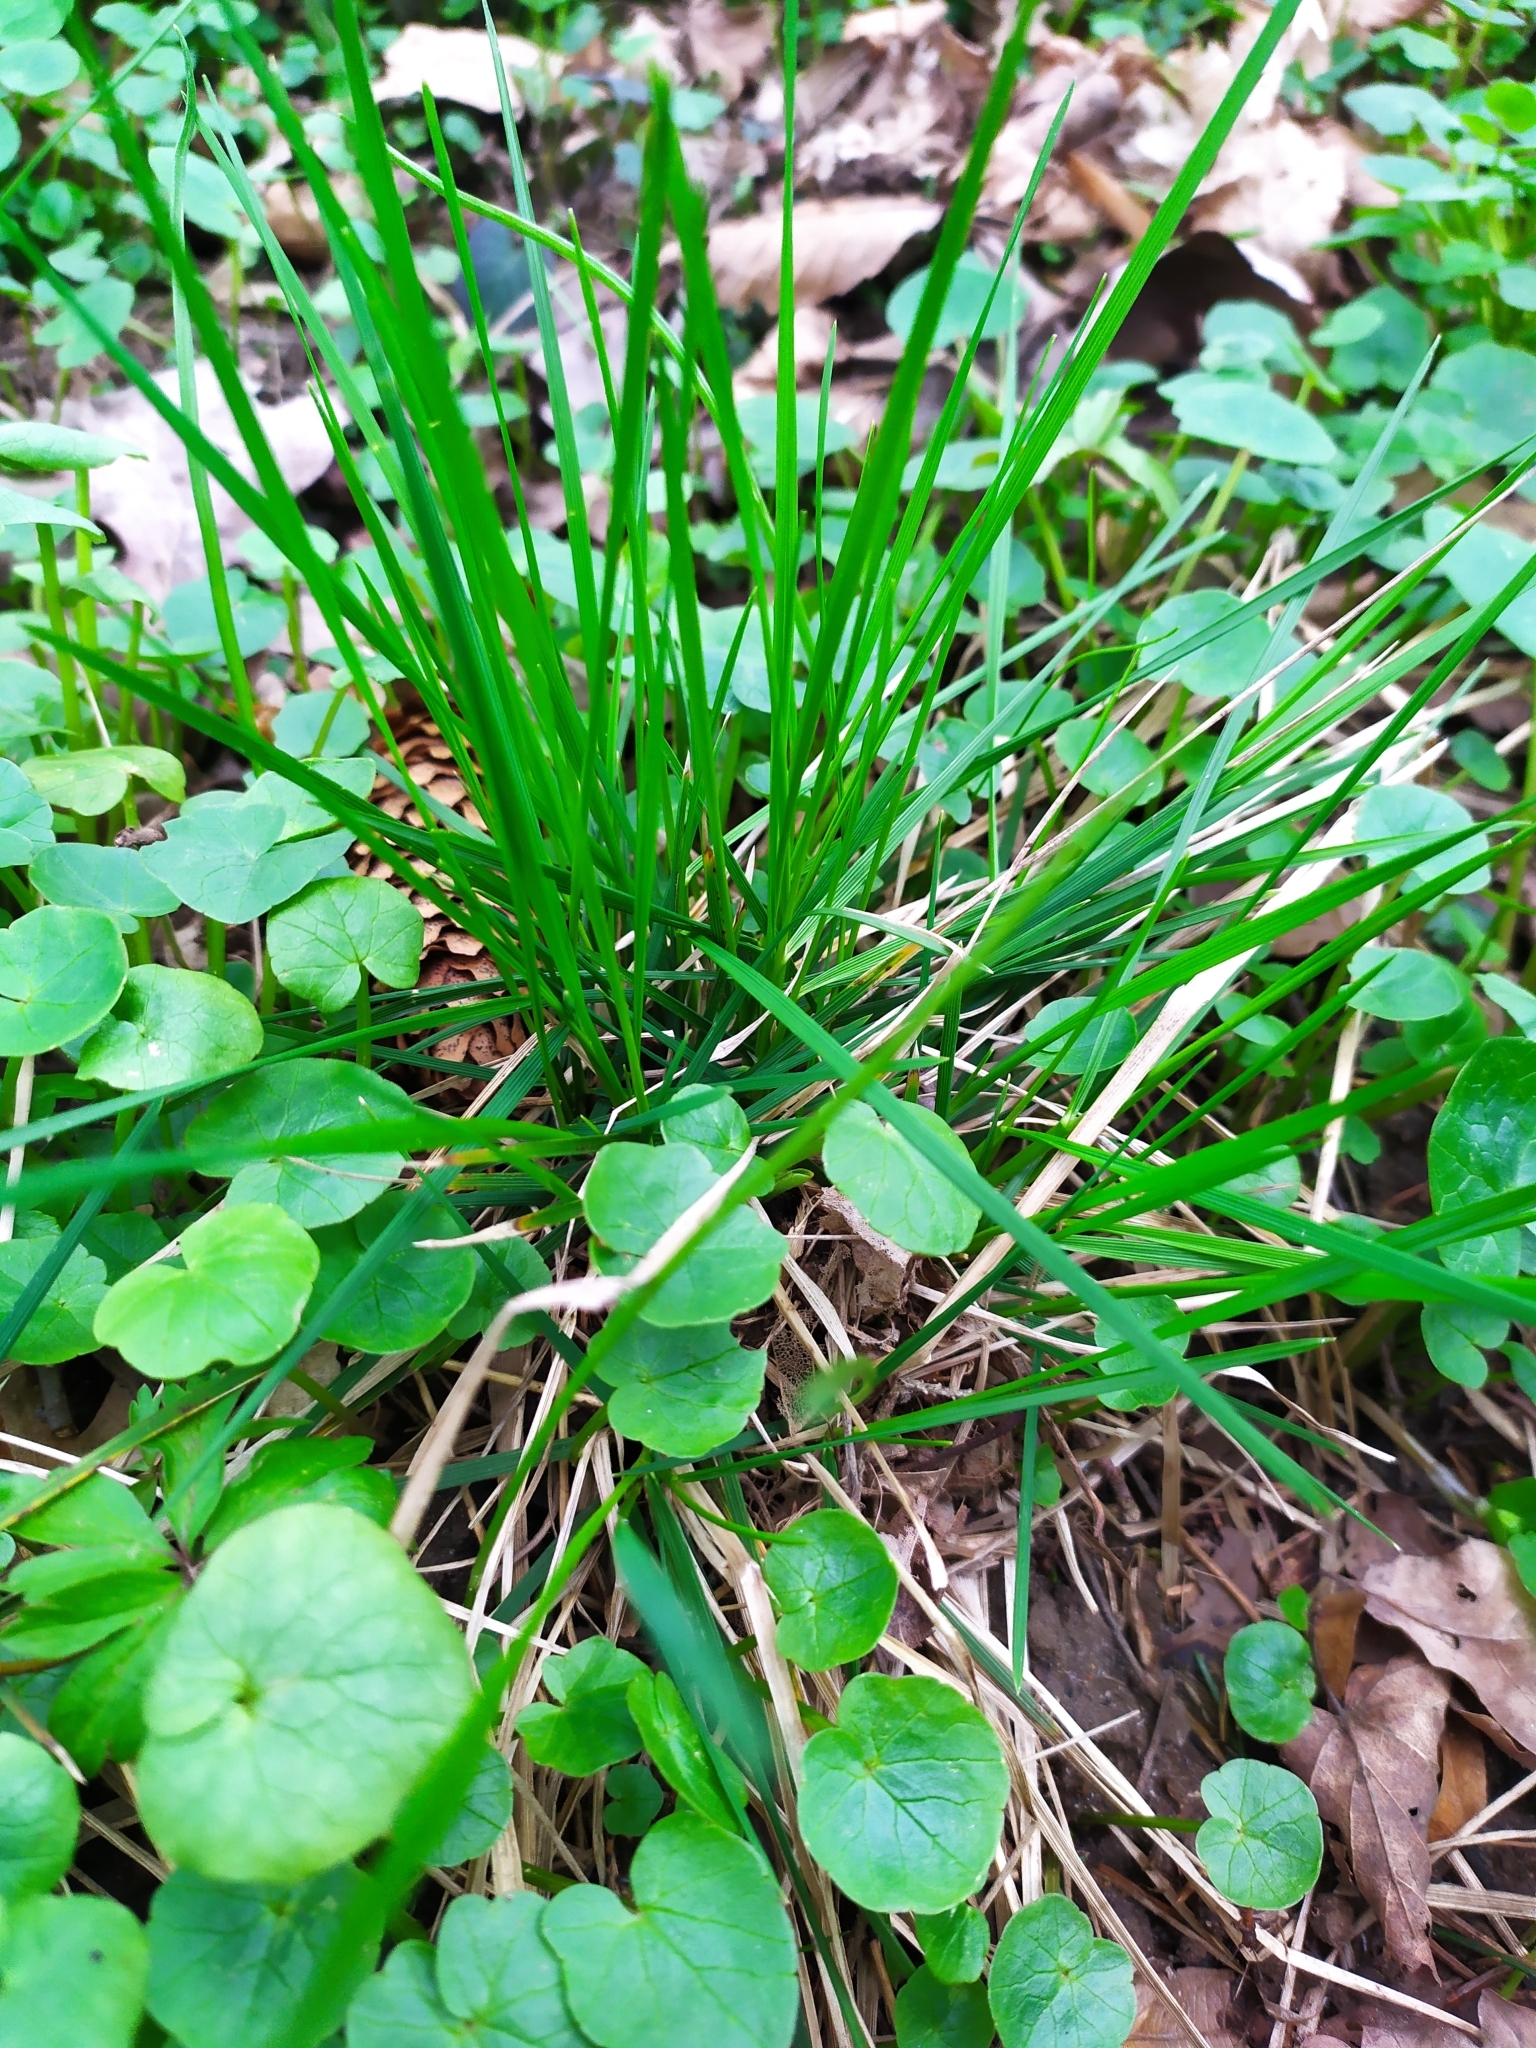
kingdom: Plantae
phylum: Tracheophyta
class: Liliopsida
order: Poales
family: Poaceae
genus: Deschampsia
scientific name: Deschampsia cespitosa
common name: Tufted hair-grass
